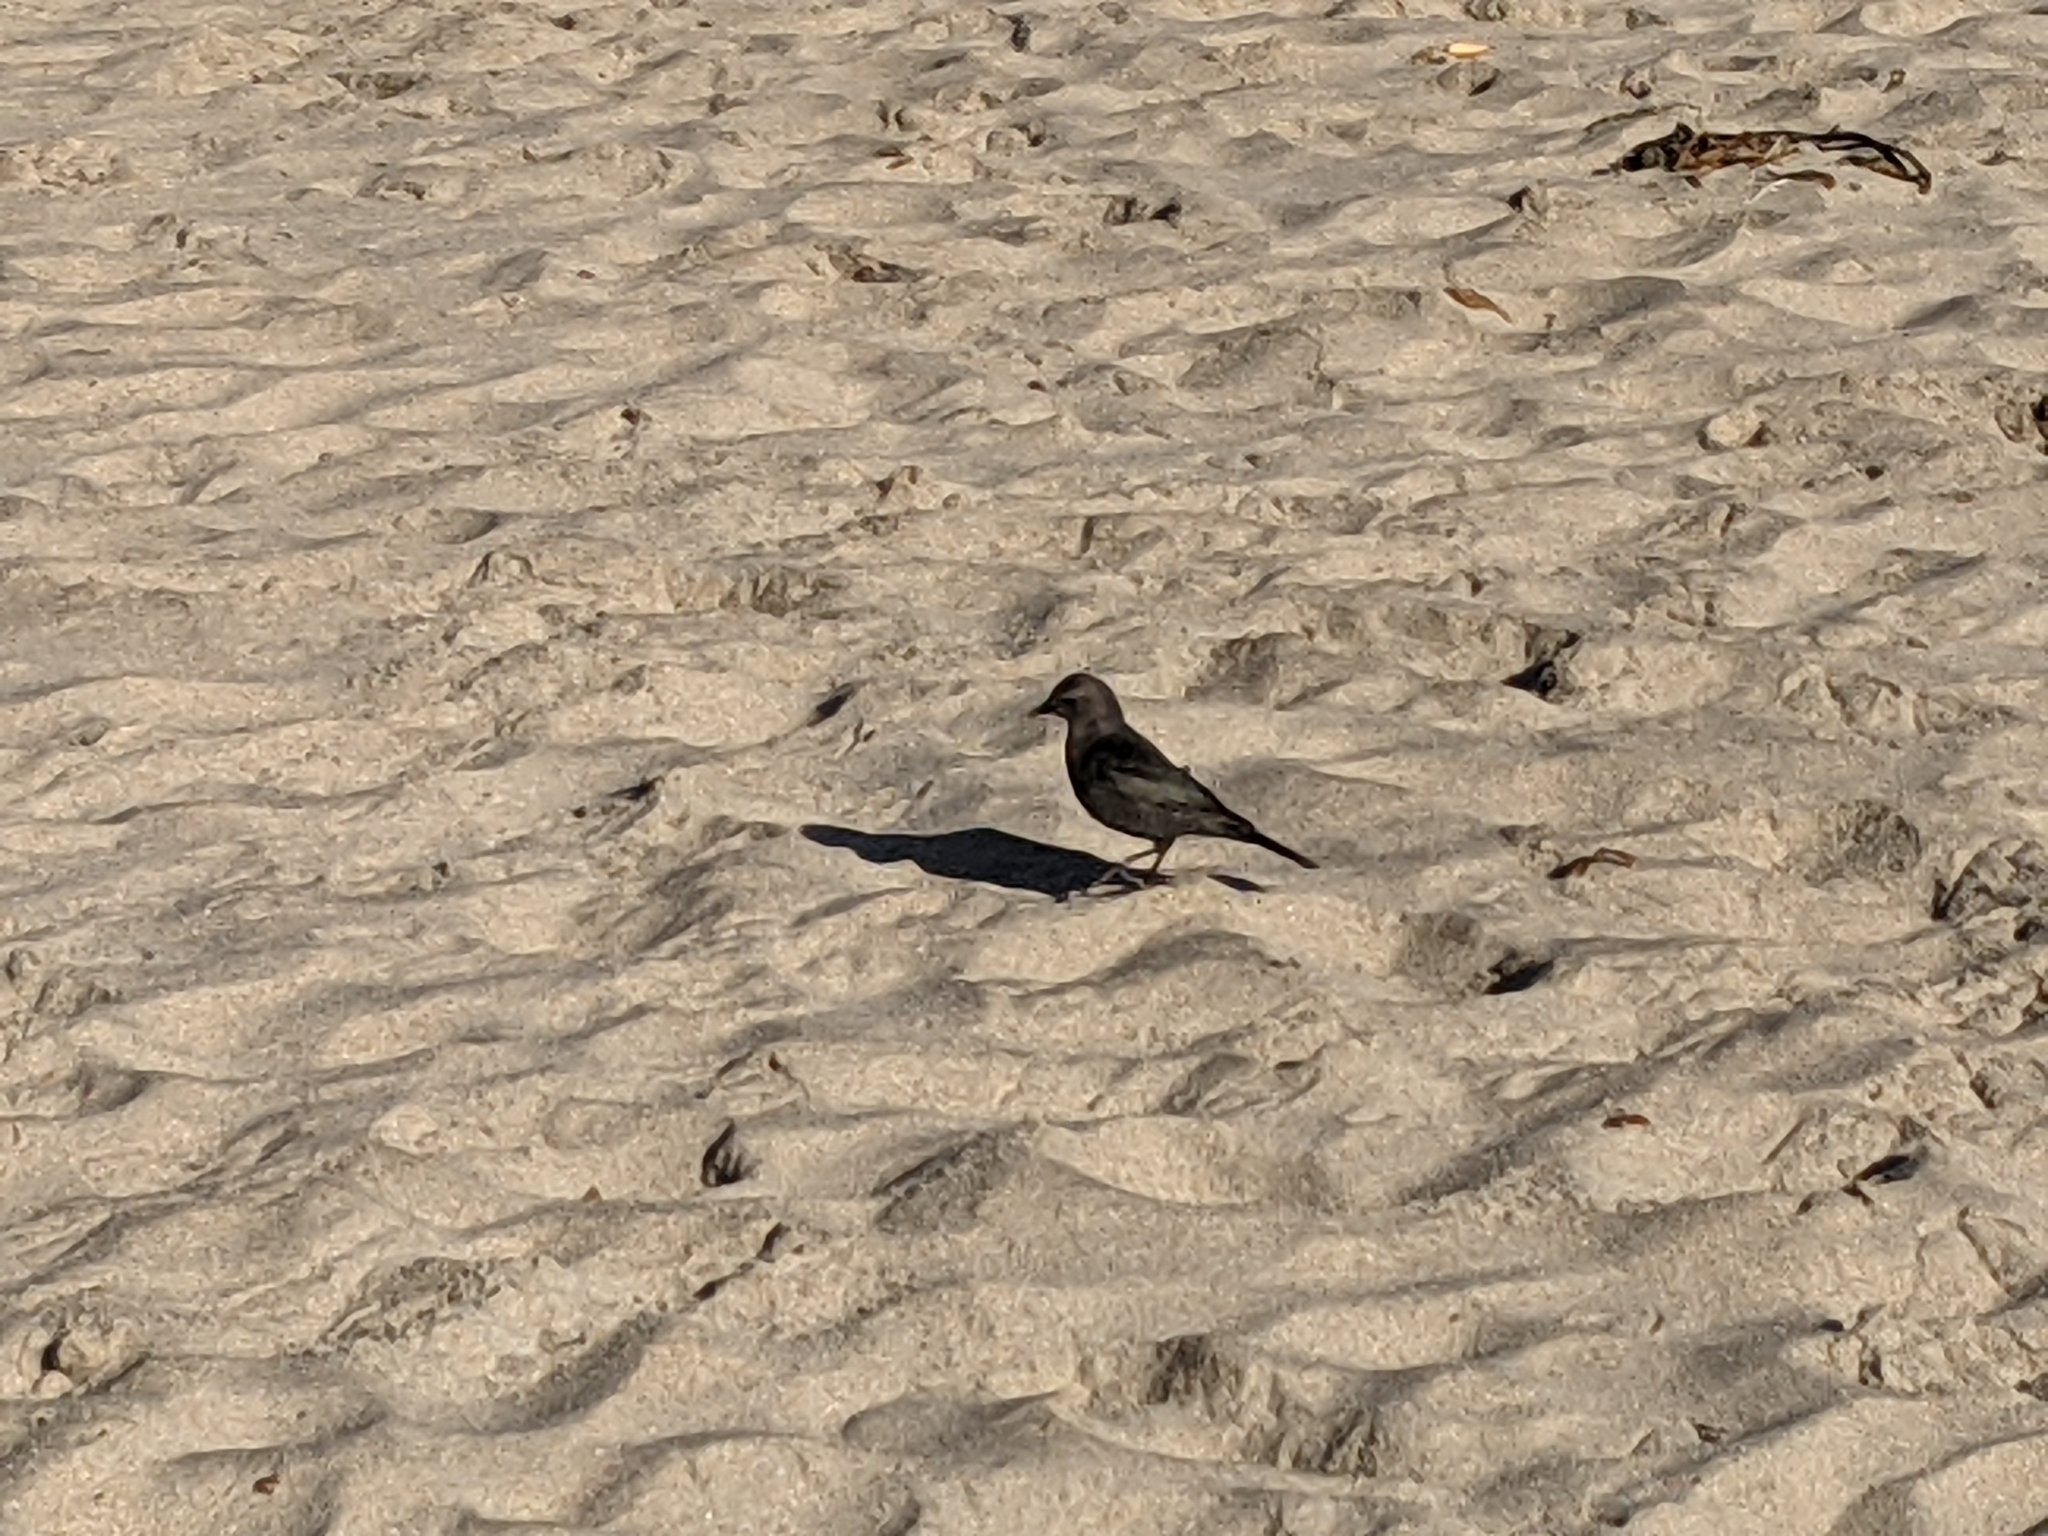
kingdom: Animalia
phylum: Chordata
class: Aves
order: Passeriformes
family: Icteridae
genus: Euphagus
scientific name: Euphagus cyanocephalus
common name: Brewer's blackbird
